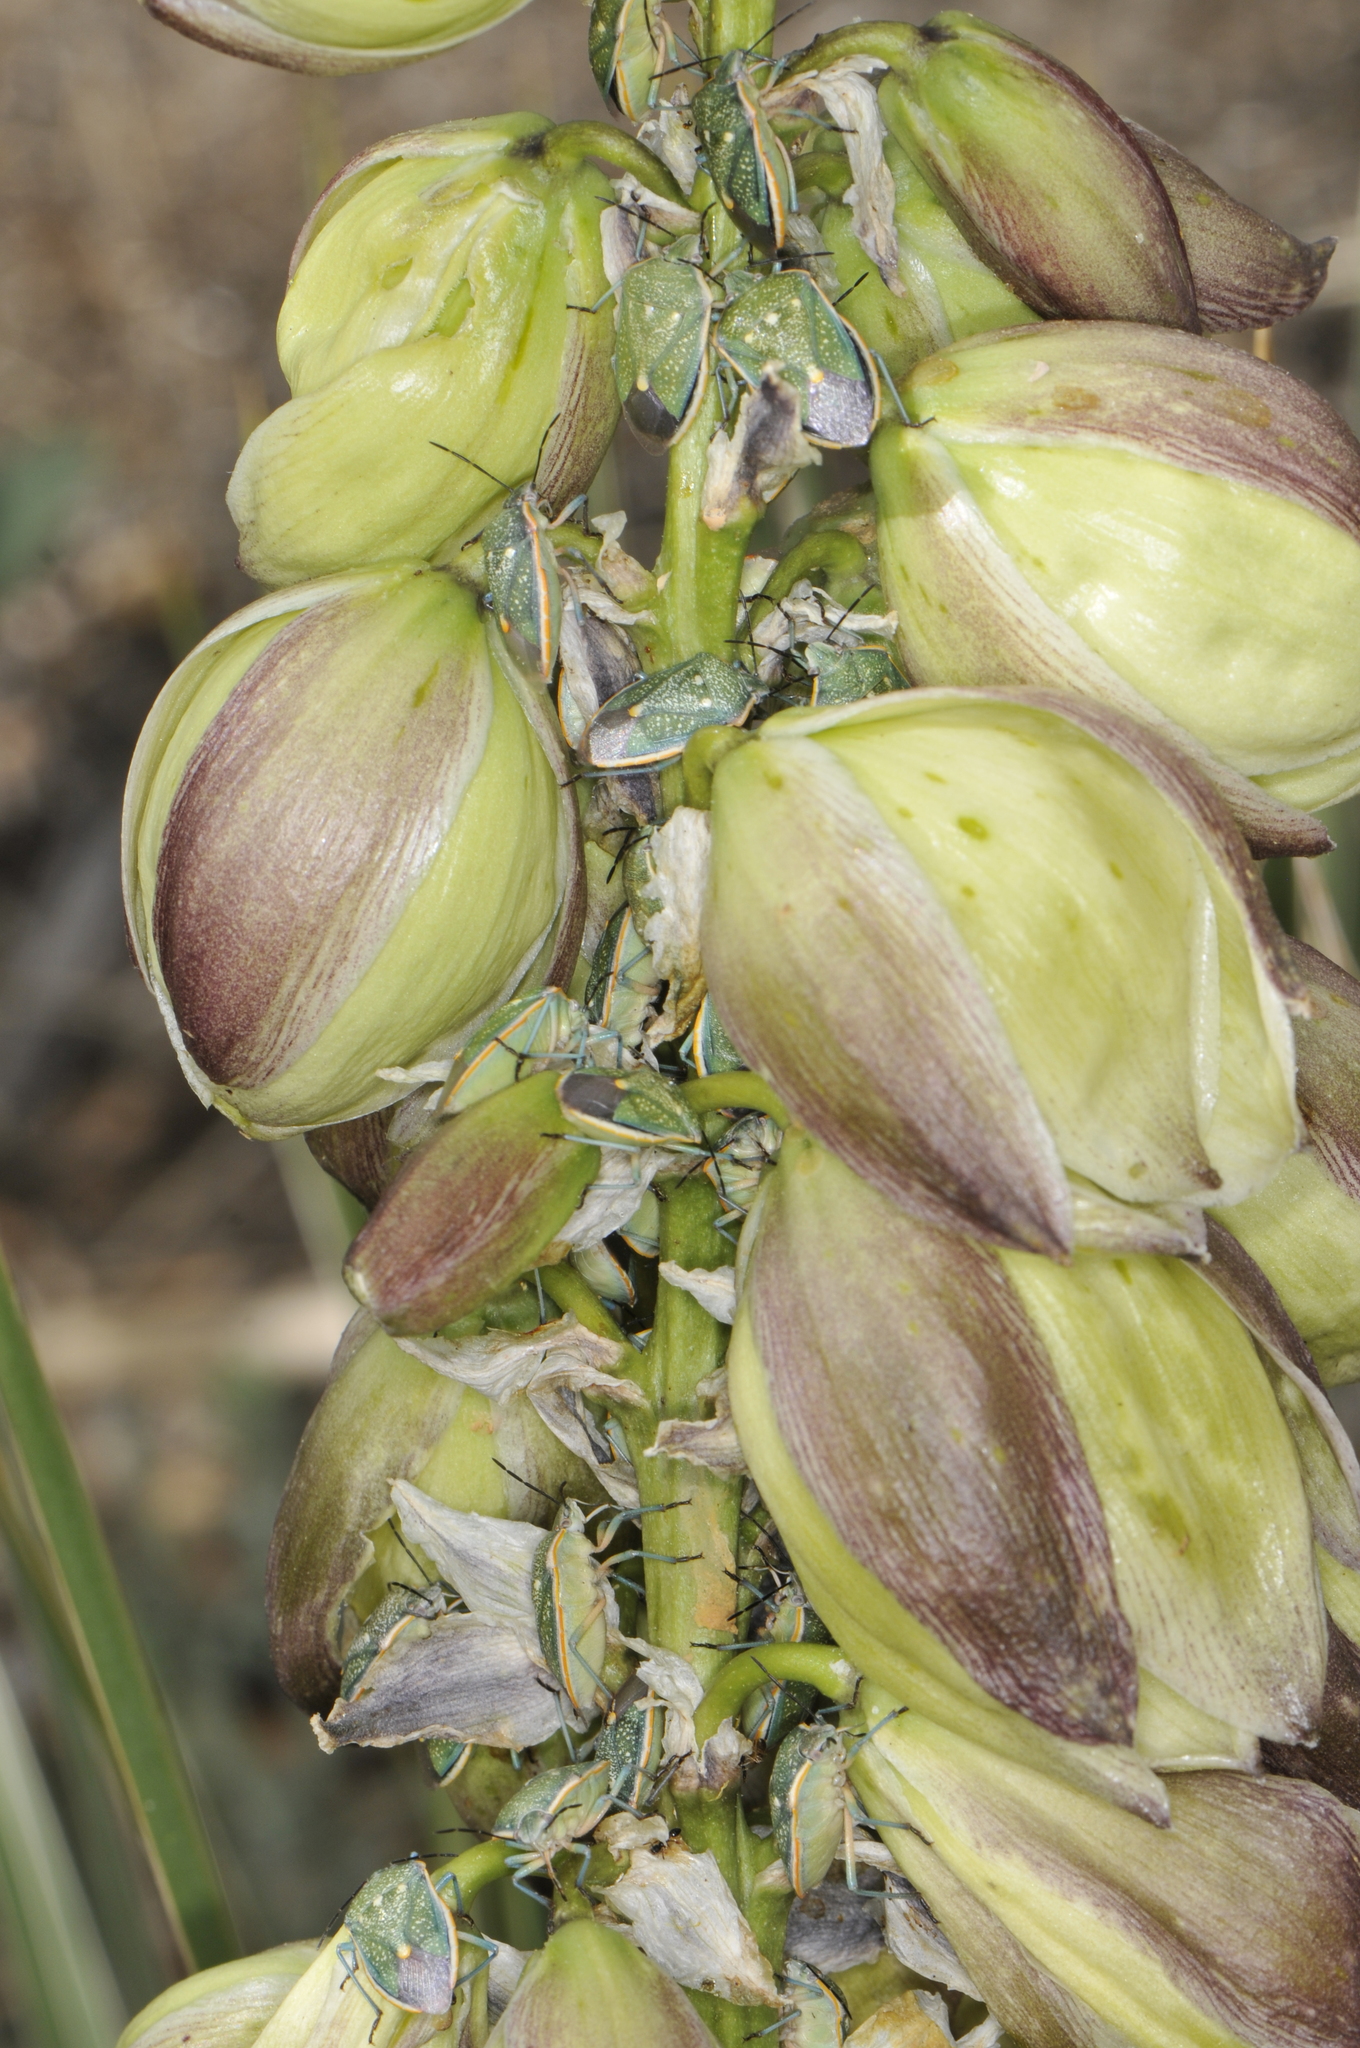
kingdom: Animalia
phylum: Arthropoda
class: Insecta
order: Hemiptera
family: Pentatomidae
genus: Chlorochroa
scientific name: Chlorochroa sayi
